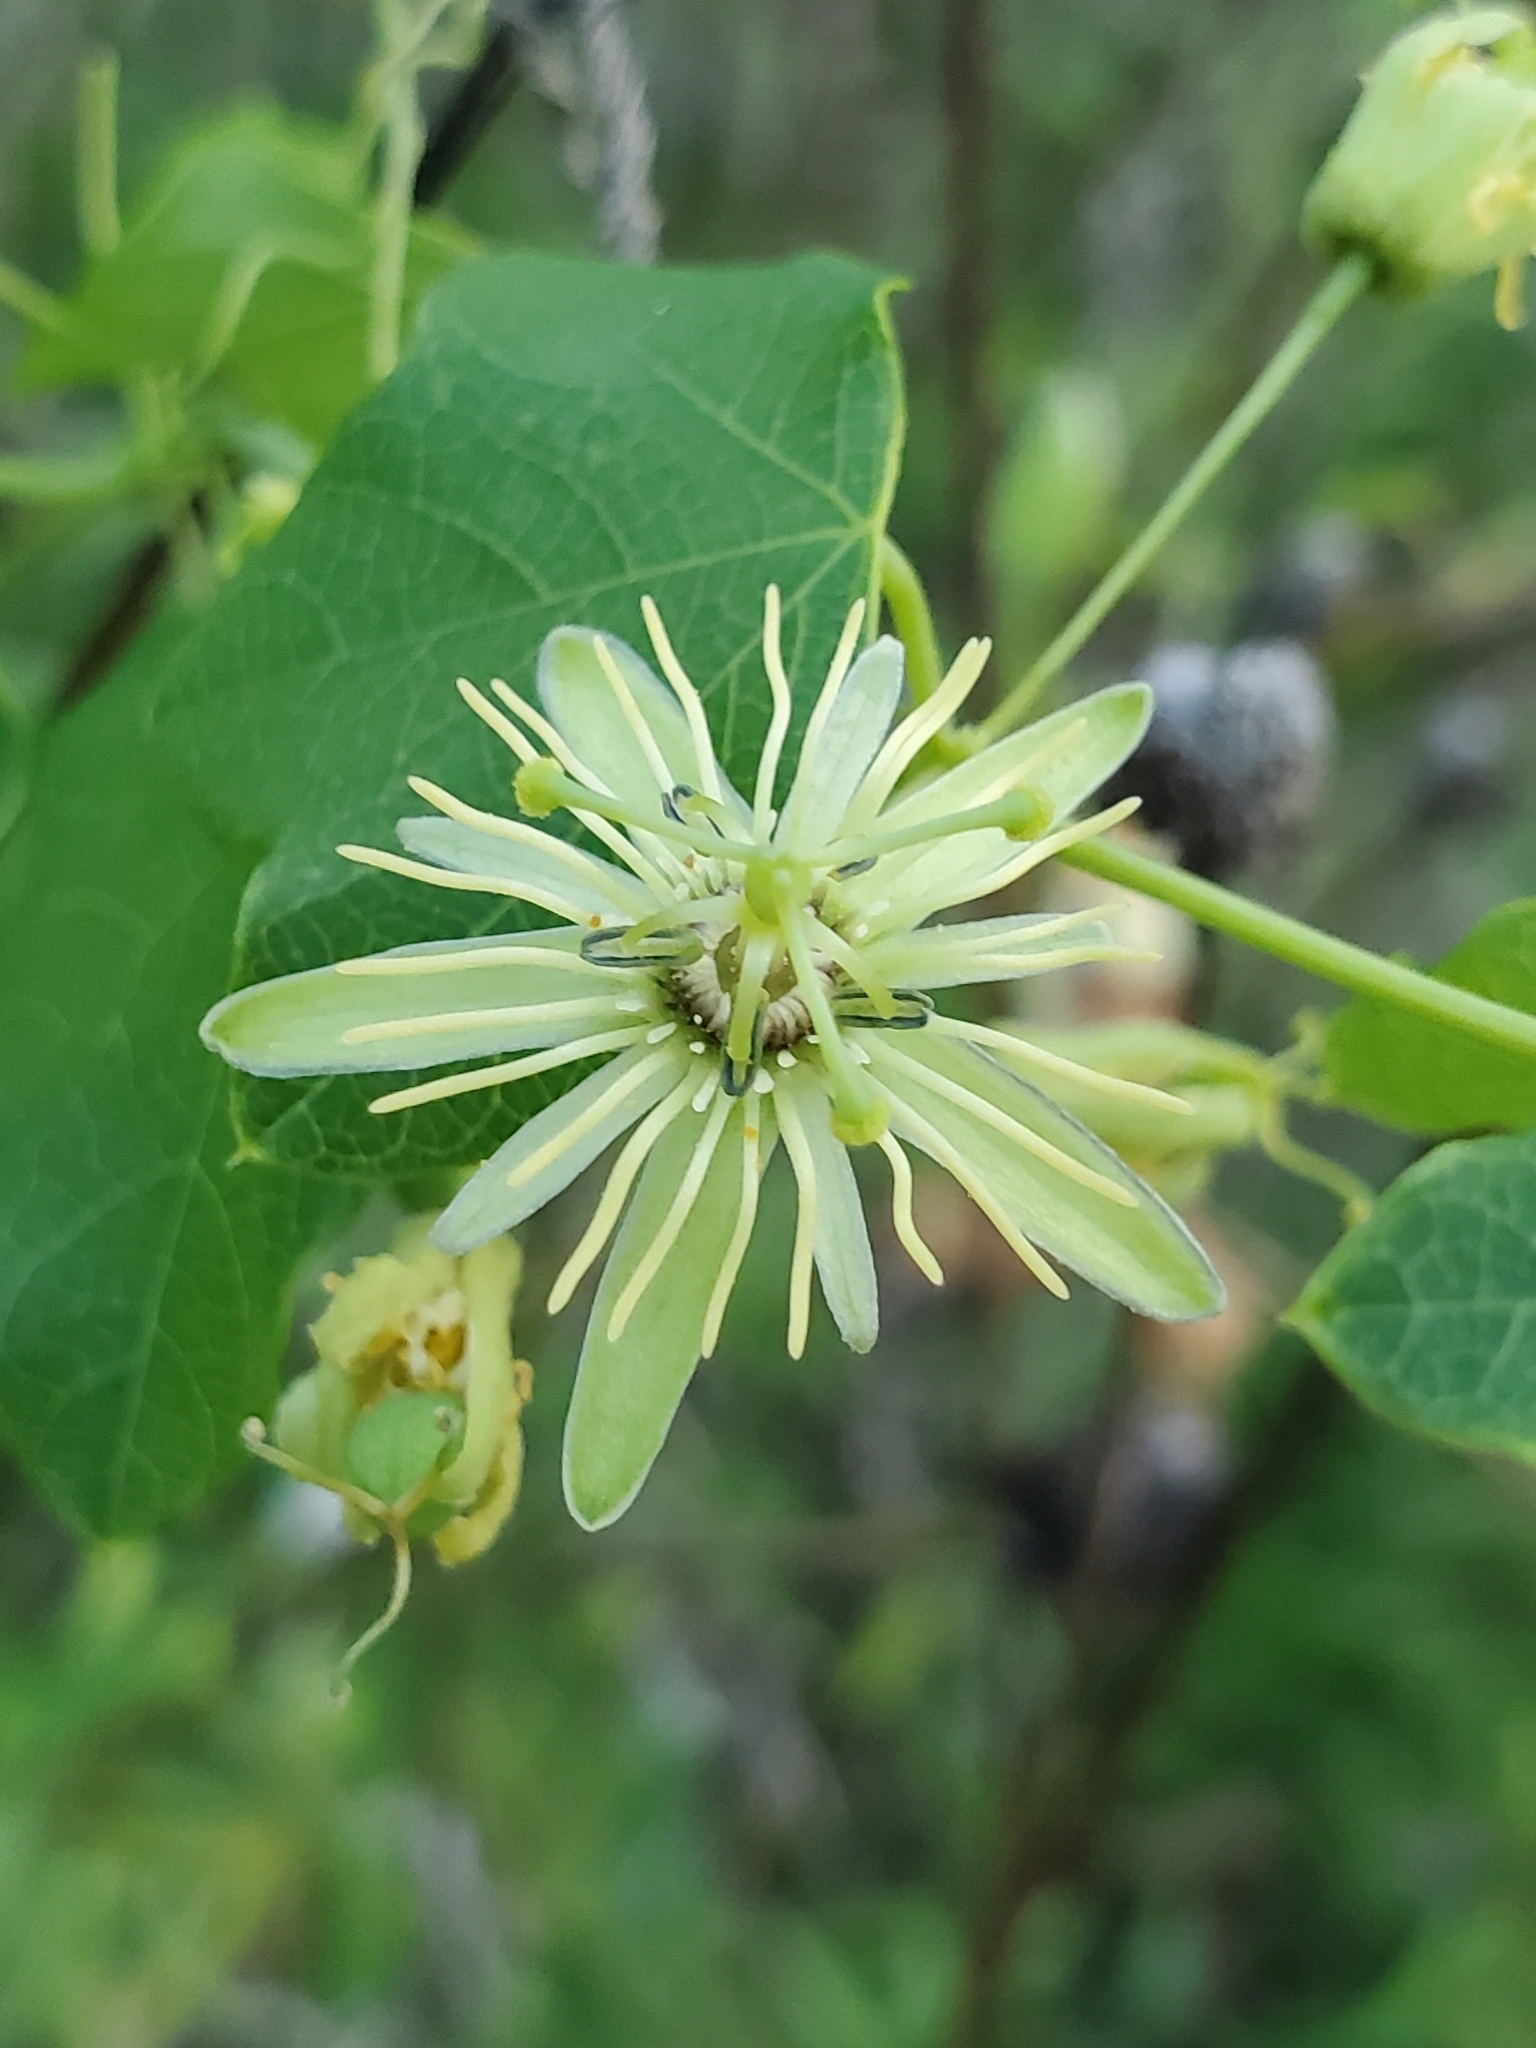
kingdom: Plantae
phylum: Tracheophyta
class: Magnoliopsida
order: Malpighiales
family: Passifloraceae
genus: Passiflora
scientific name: Passiflora lutea
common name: Yellow passionflower
